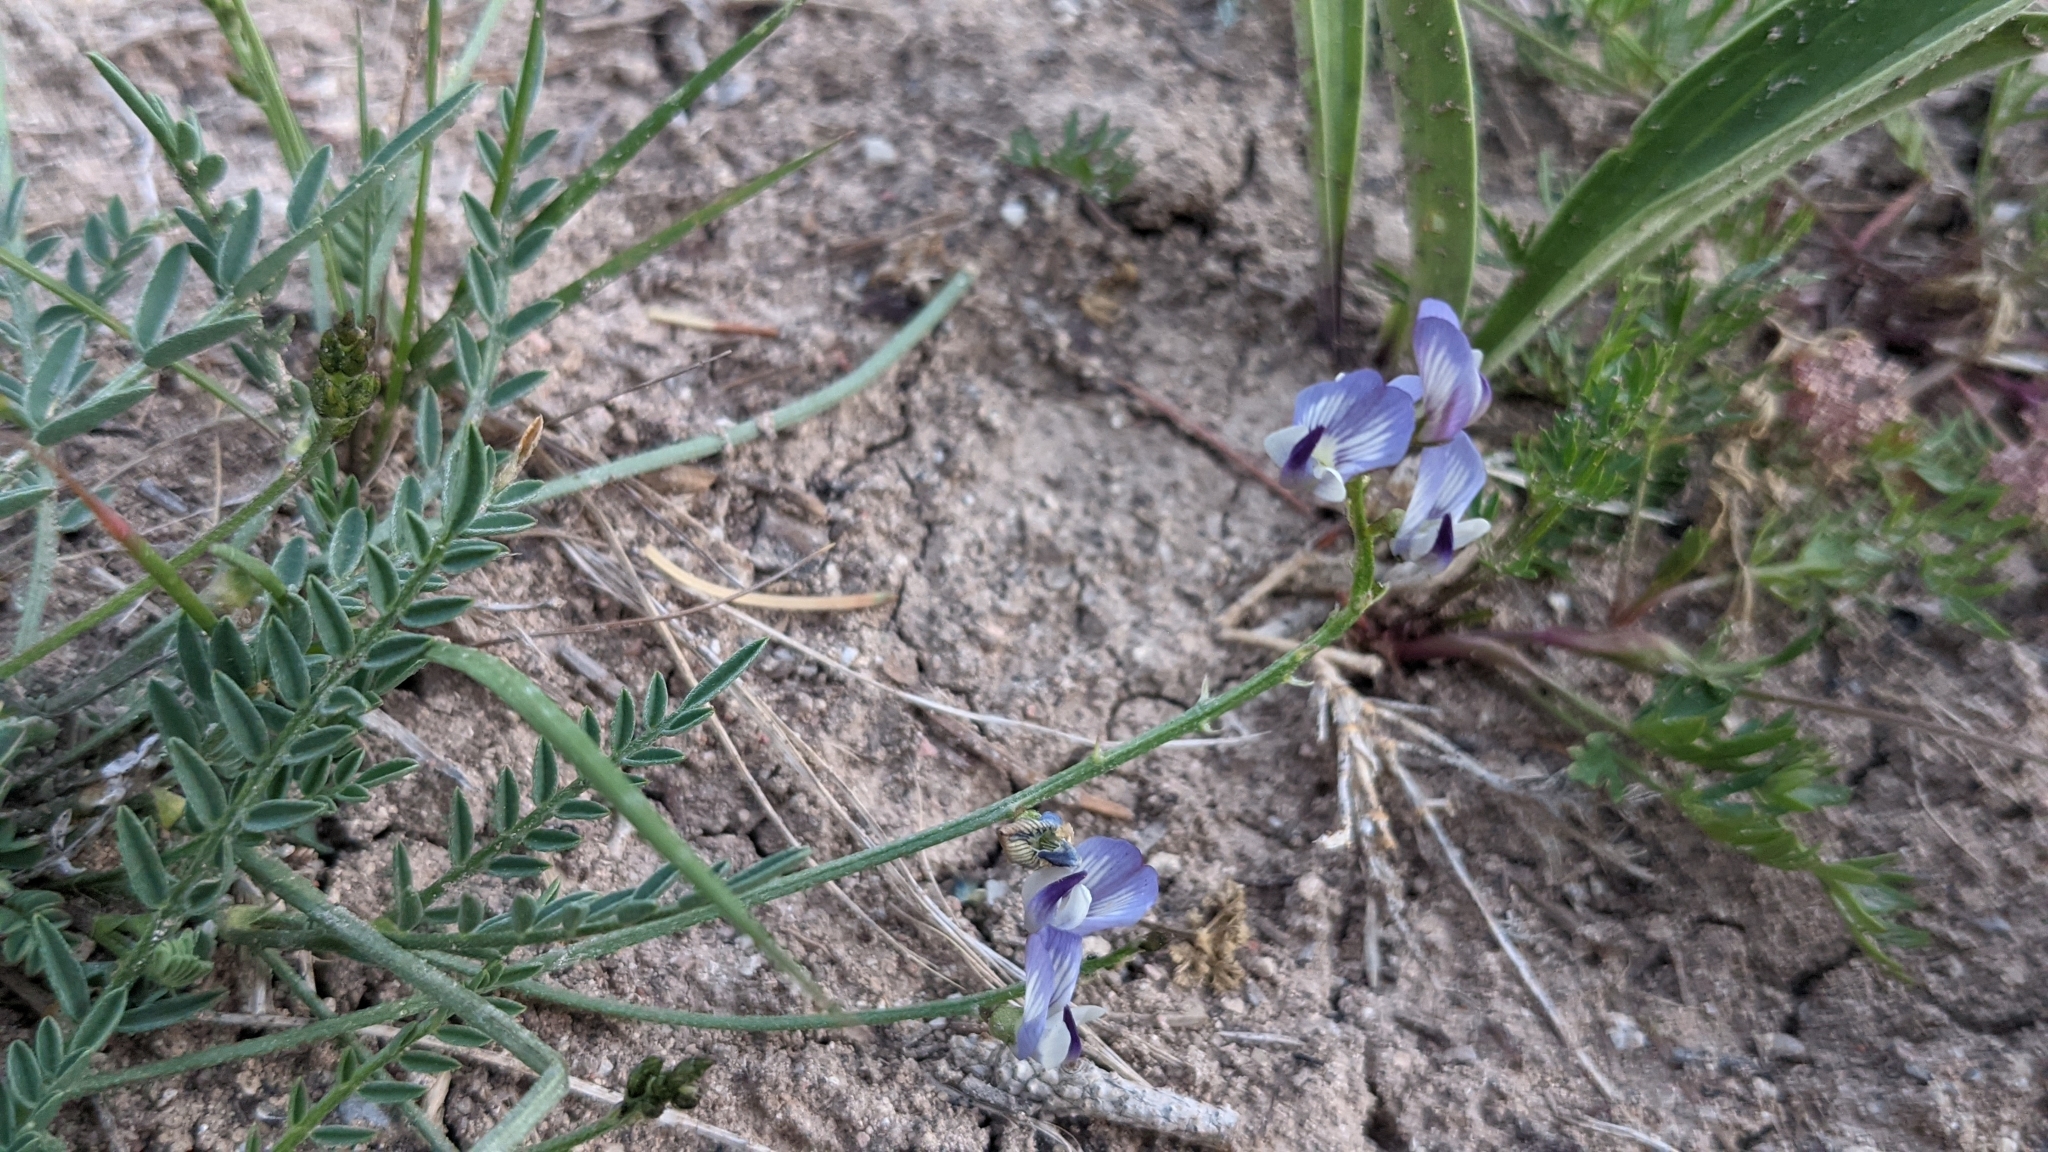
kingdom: Plantae
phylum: Tracheophyta
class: Magnoliopsida
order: Fabales
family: Fabaceae
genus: Astragalus
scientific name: Astragalus miser
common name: Timber milkvetch
